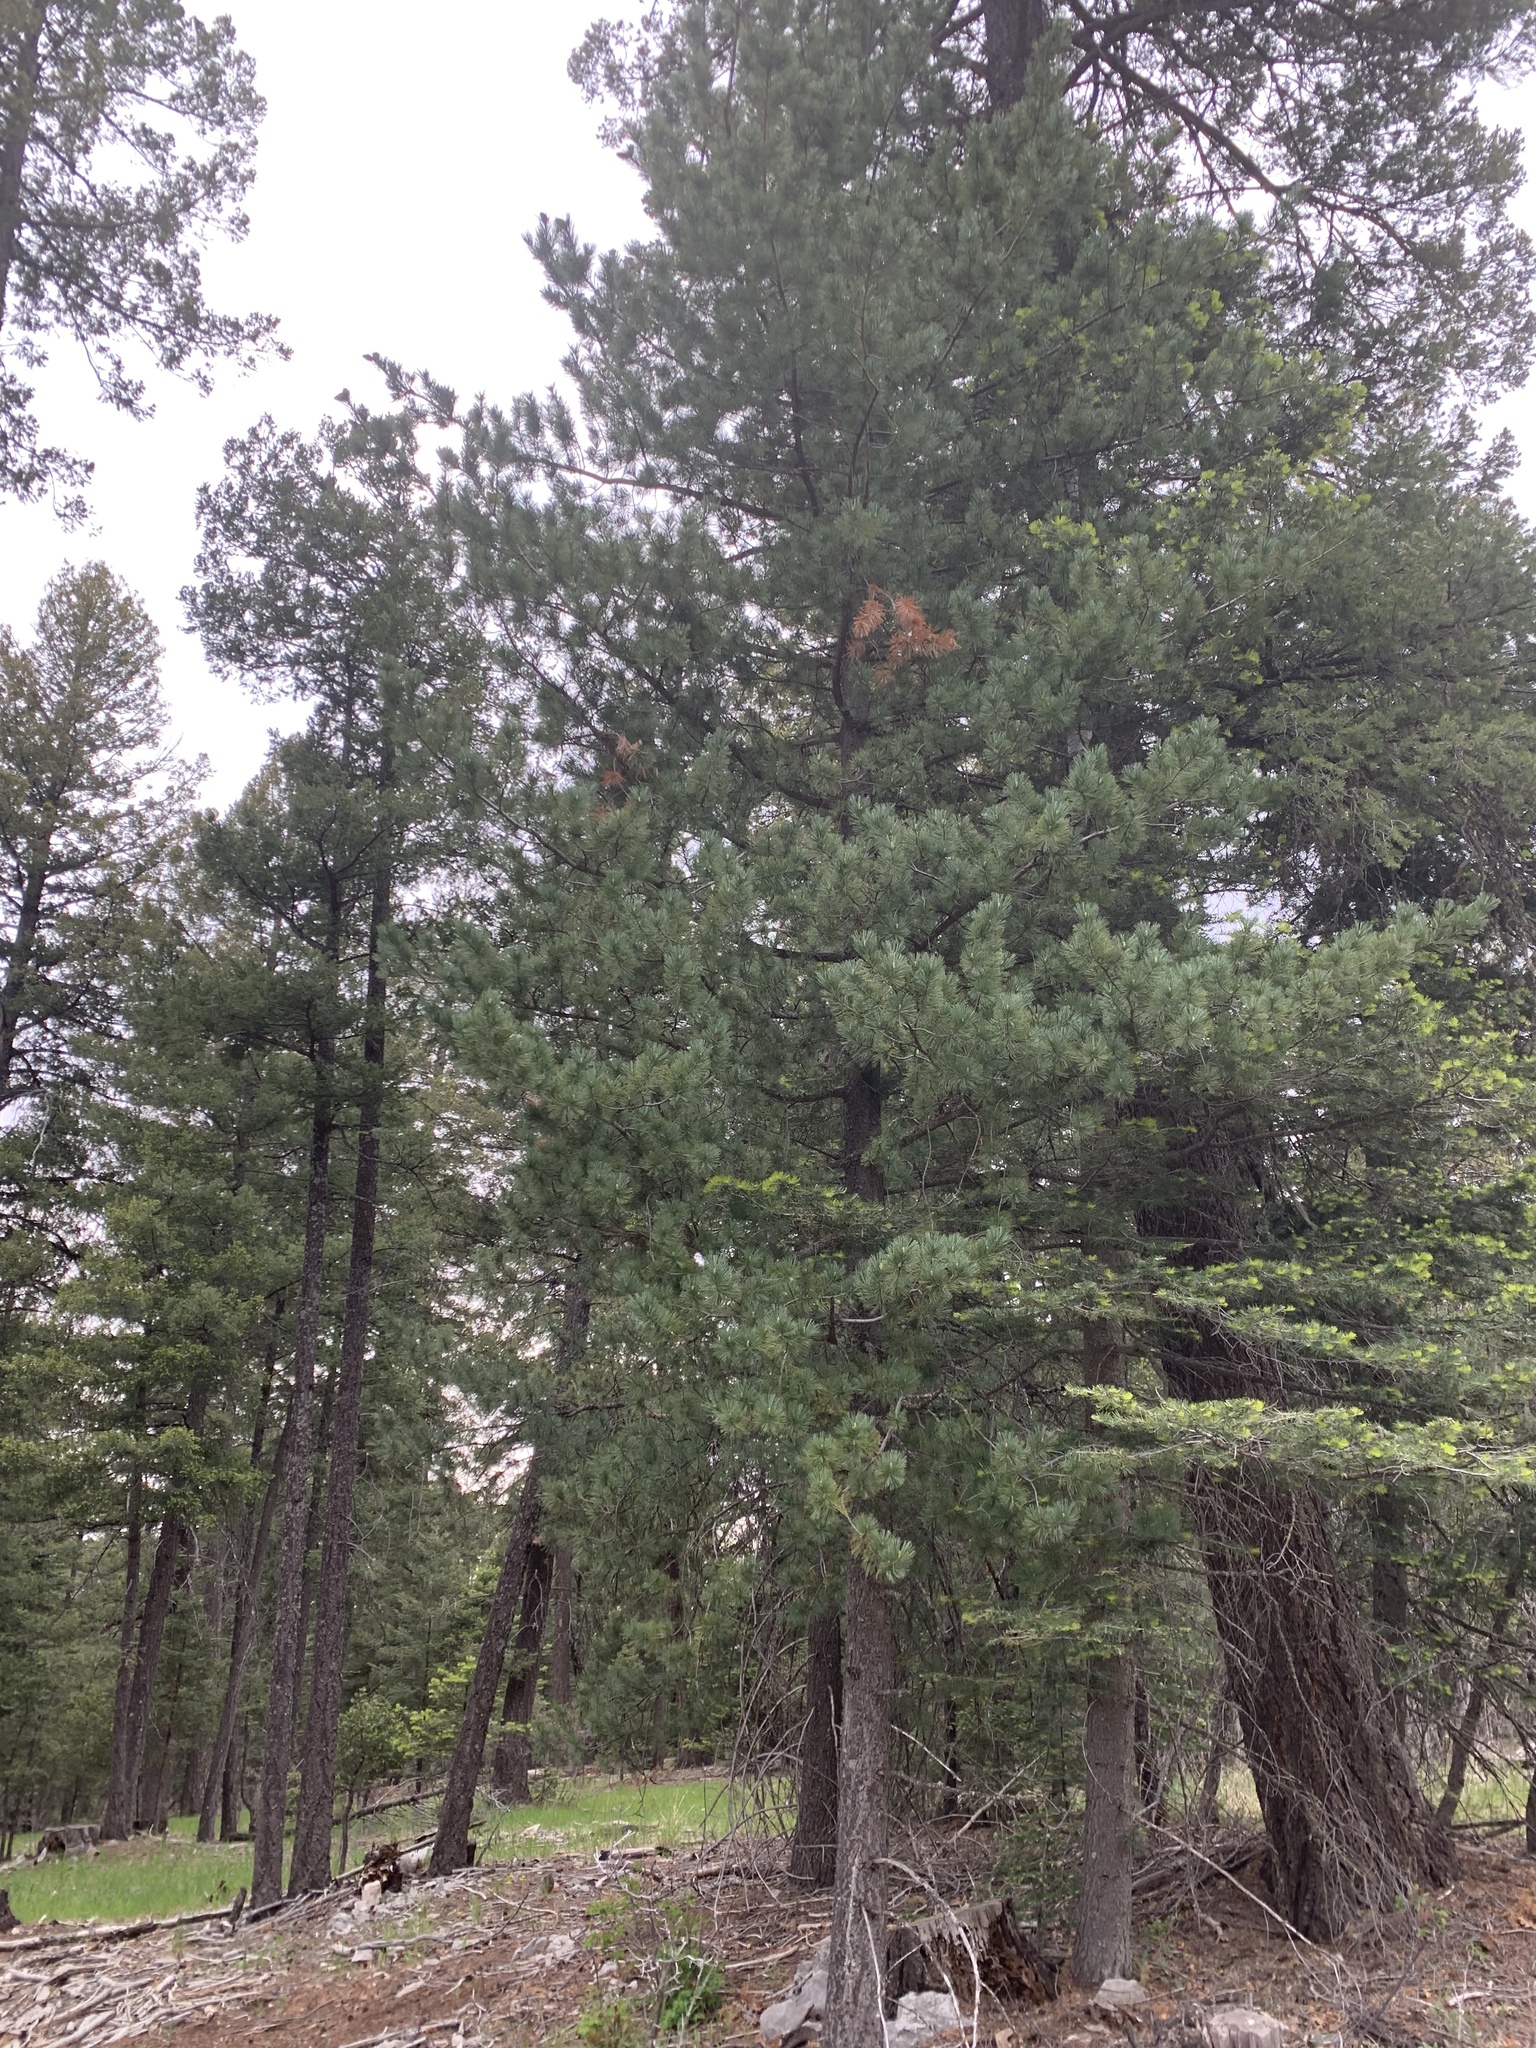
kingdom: Plantae
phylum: Tracheophyta
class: Pinopsida
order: Pinales
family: Pinaceae
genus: Pinus
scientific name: Pinus ponderosa
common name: Western yellow-pine
